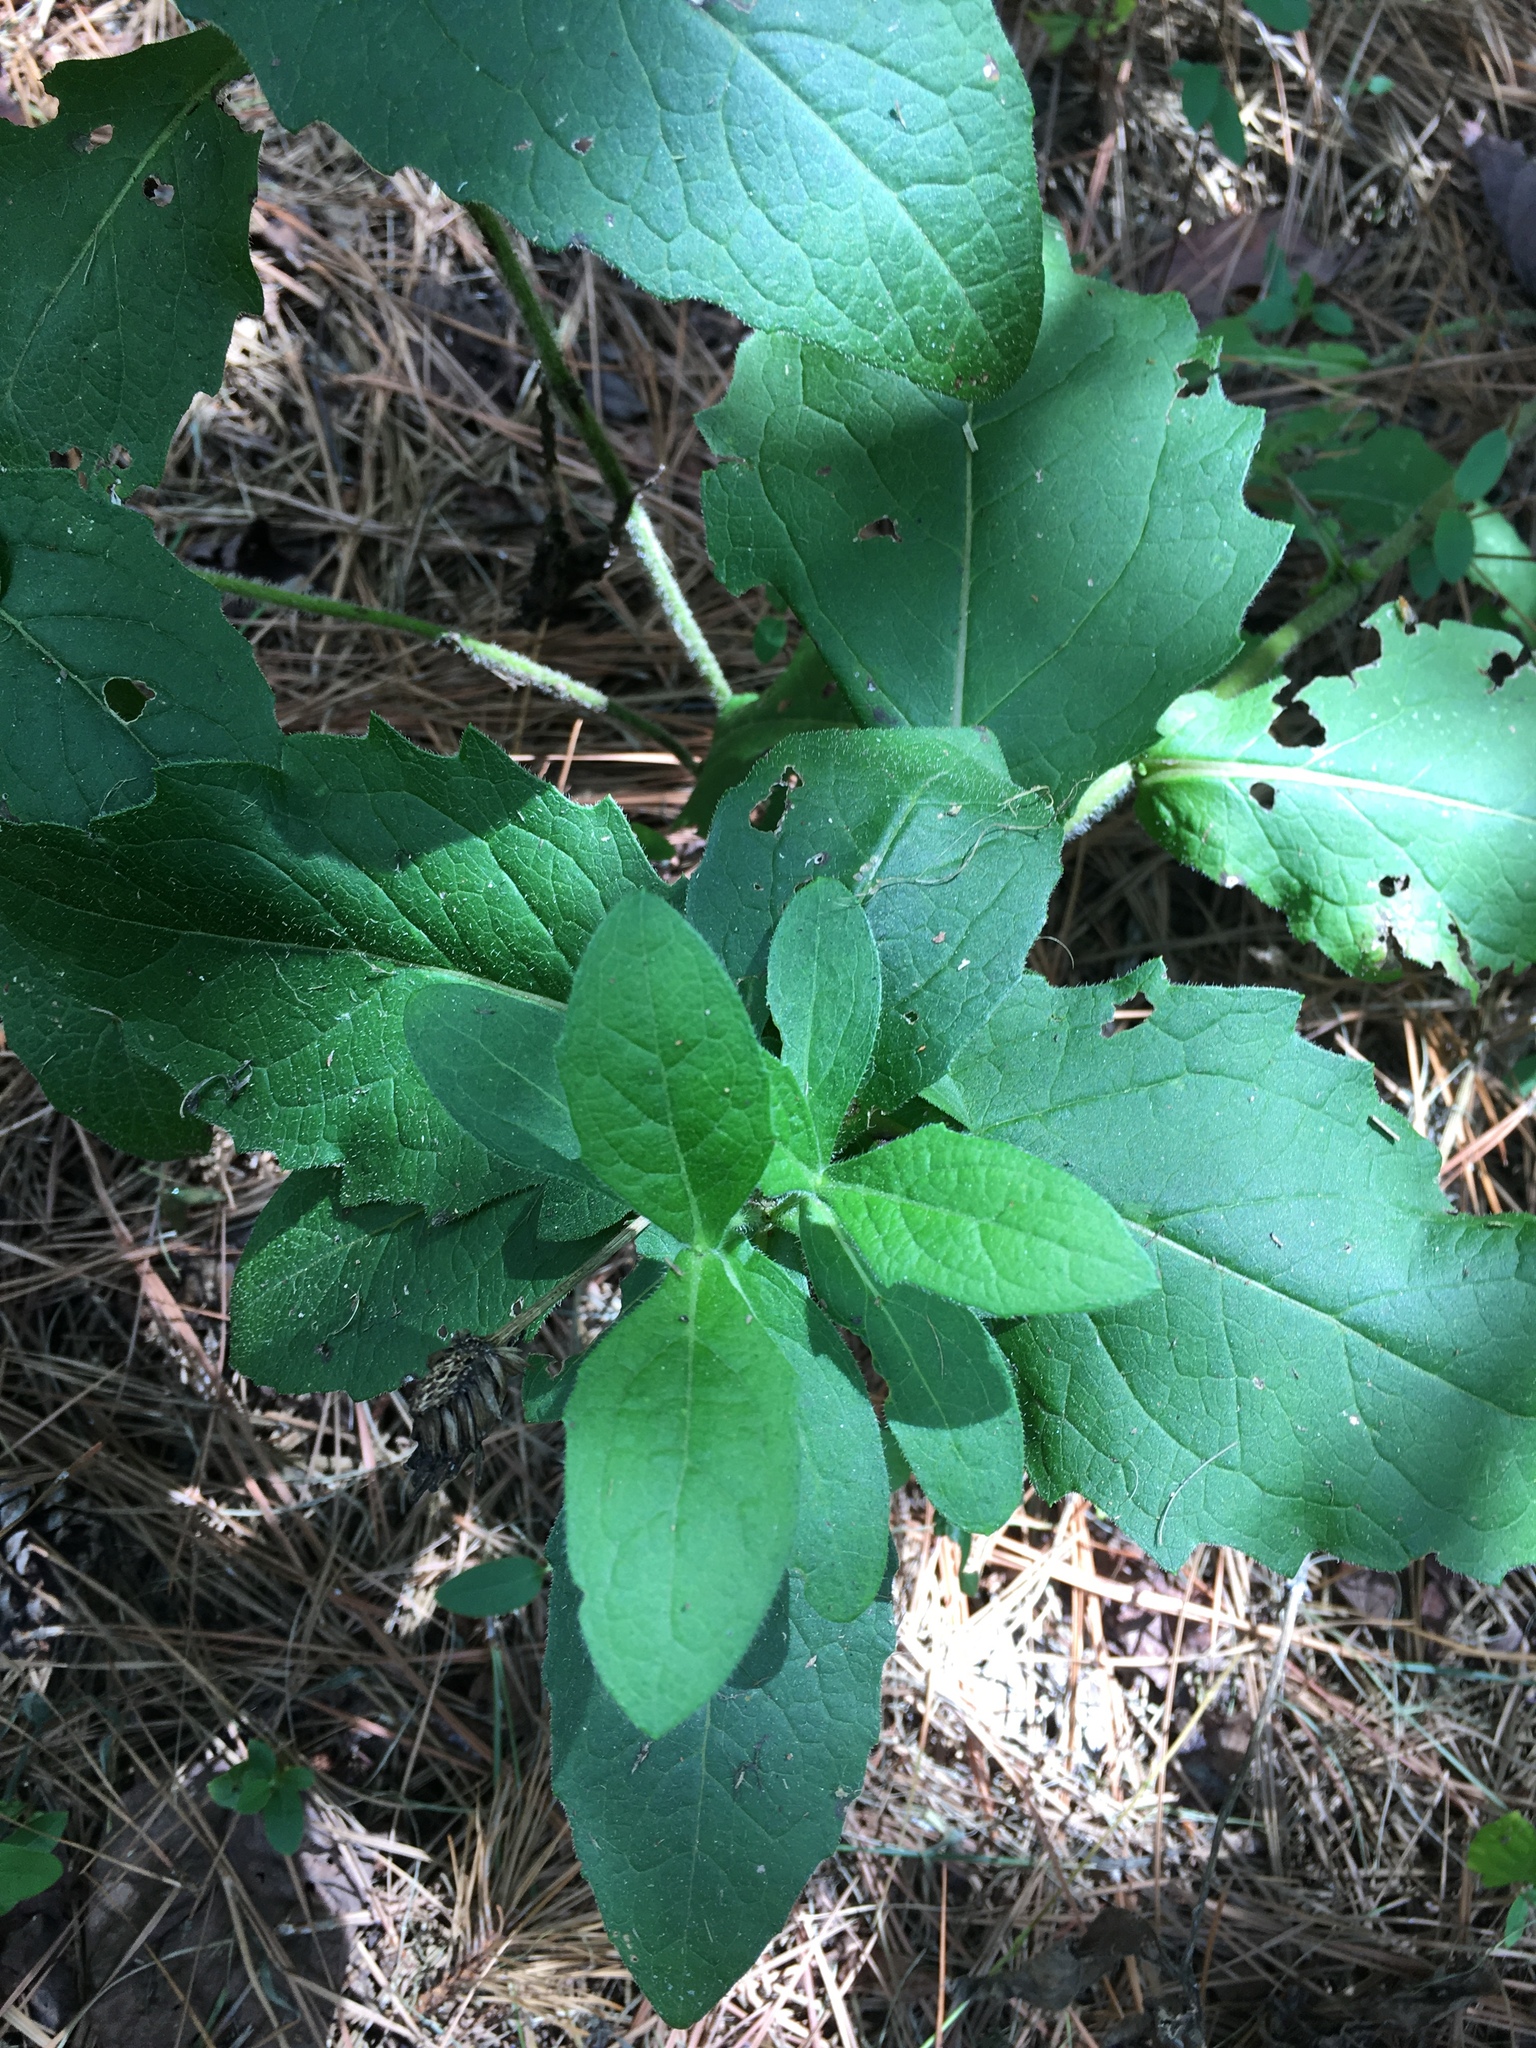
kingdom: Plantae
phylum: Tracheophyta
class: Magnoliopsida
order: Asterales
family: Asteraceae
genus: Tetragonotheca
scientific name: Tetragonotheca helianthoides
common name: Pineland-ginseng
